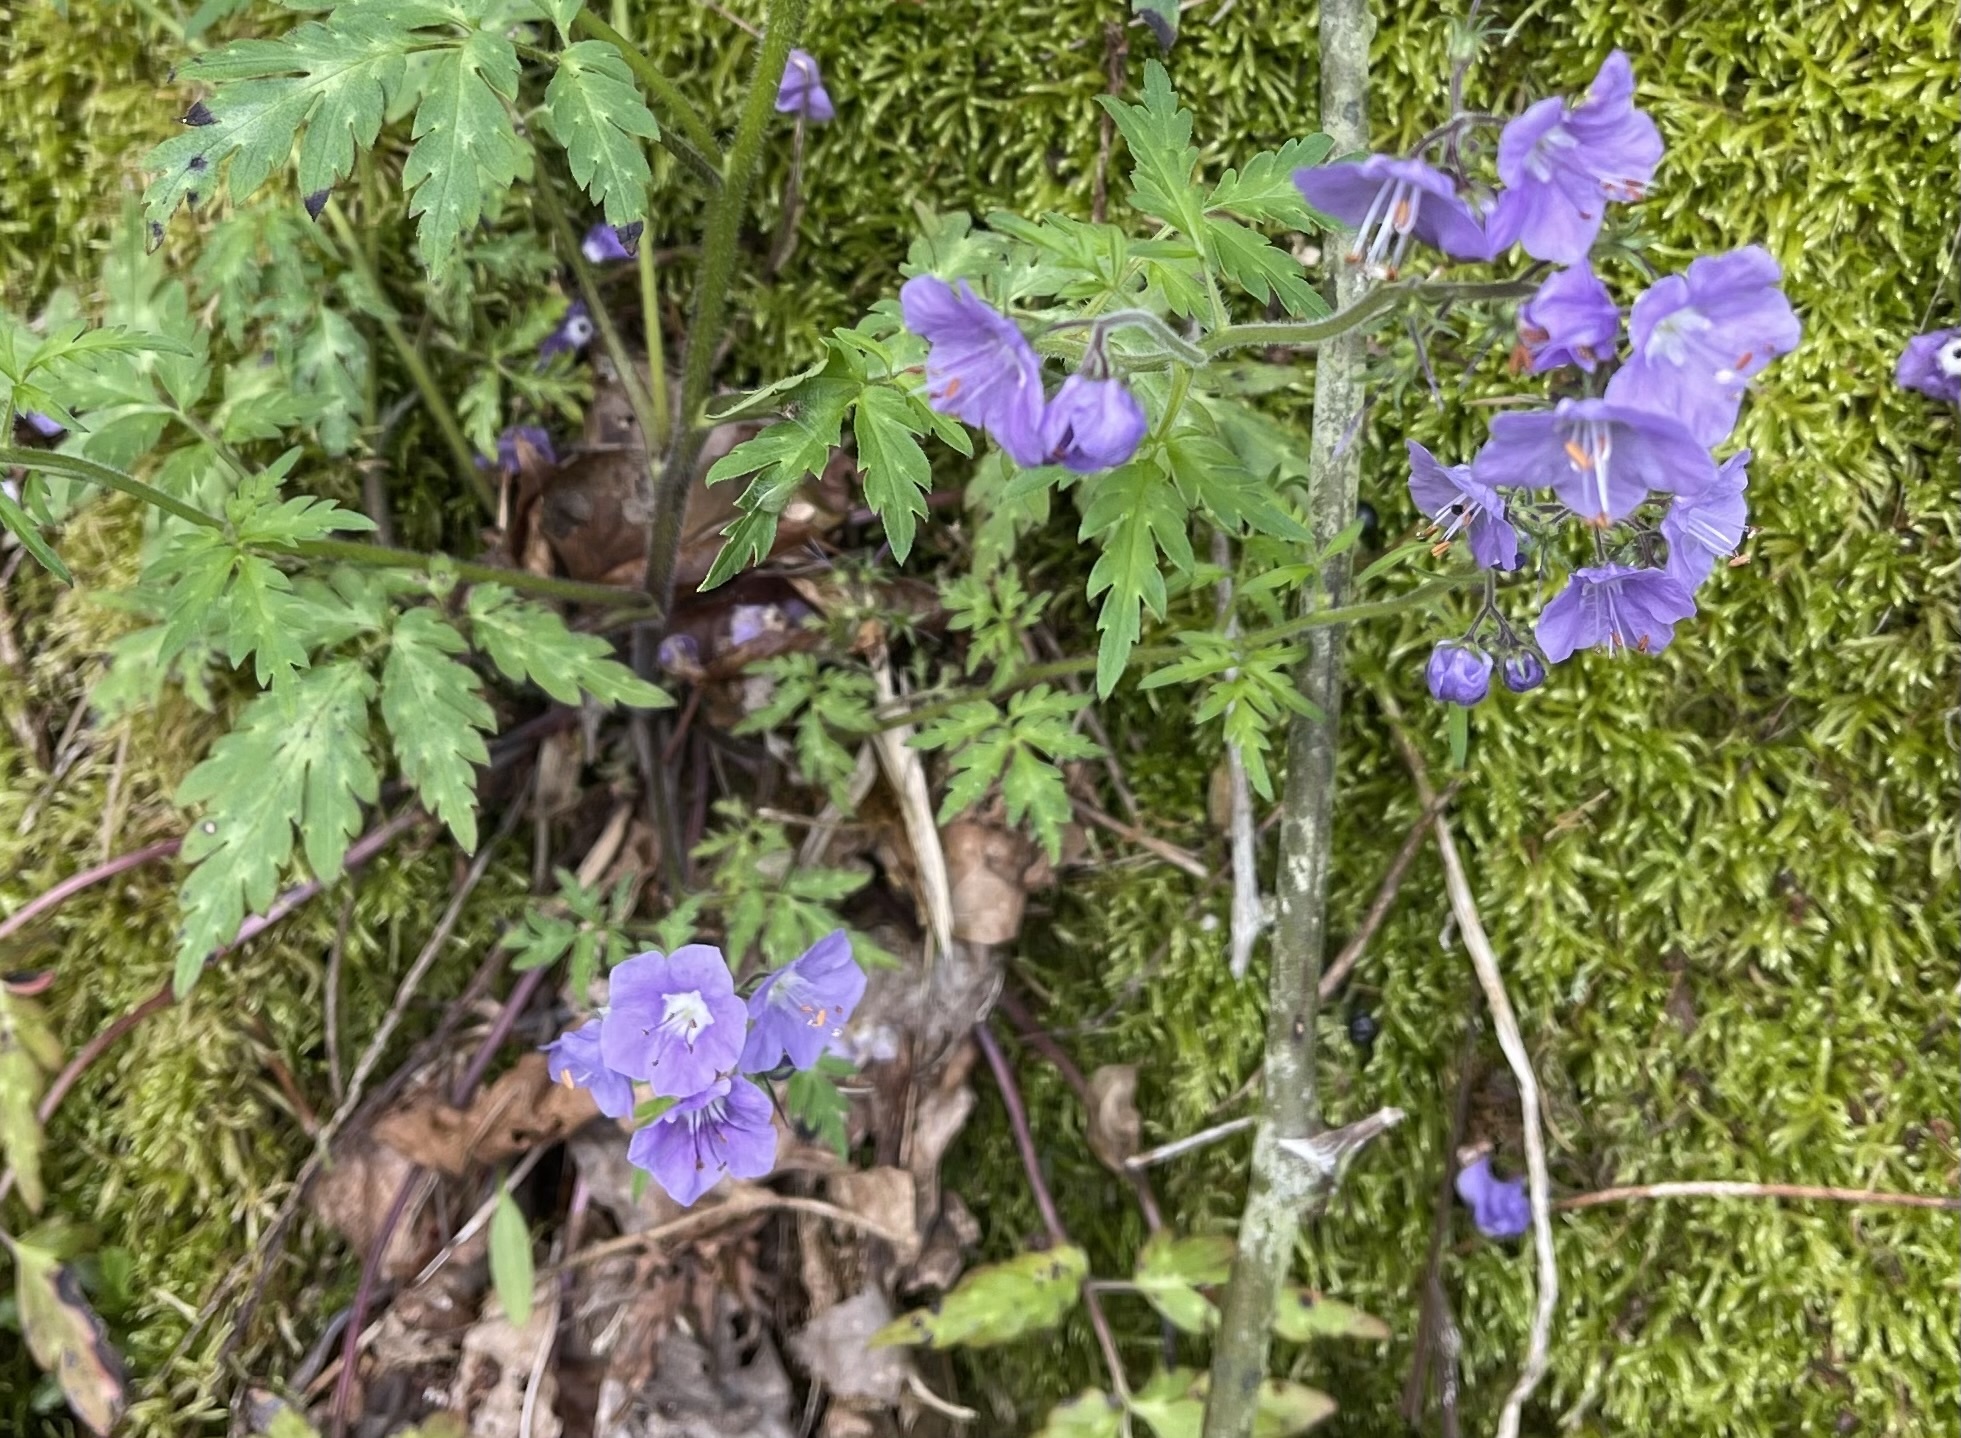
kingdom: Plantae
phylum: Tracheophyta
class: Magnoliopsida
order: Boraginales
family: Hydrophyllaceae
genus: Phacelia
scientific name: Phacelia bipinnatifida
